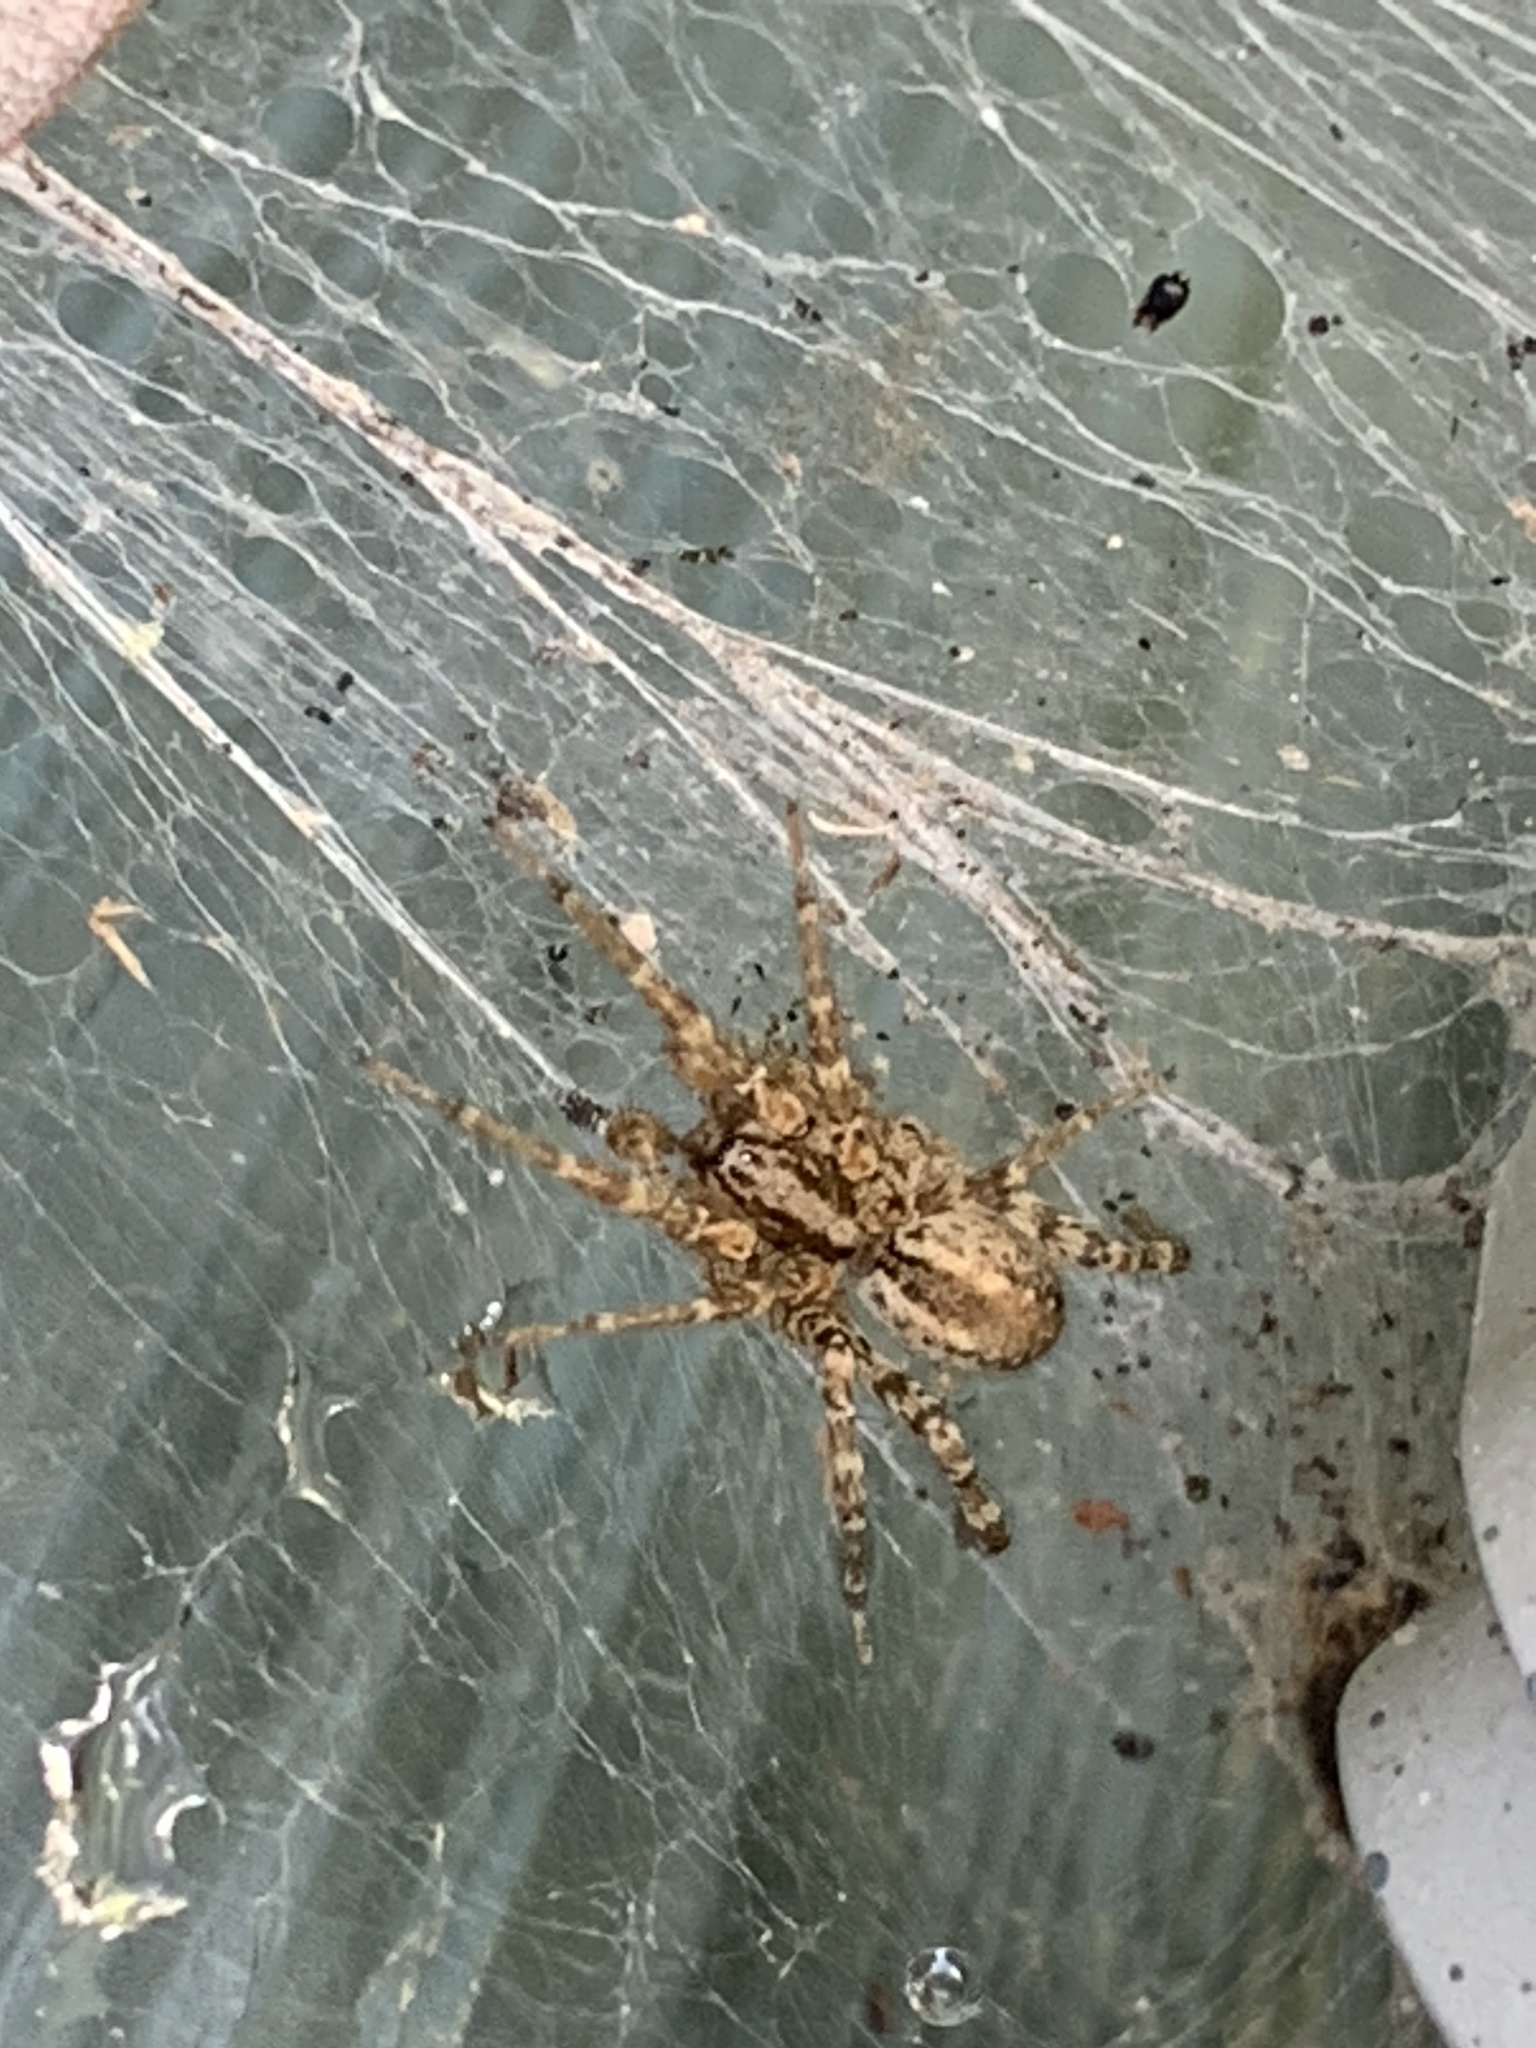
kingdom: Animalia
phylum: Arthropoda
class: Arachnida
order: Araneae
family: Agelenidae
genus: Barronopsis
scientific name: Barronopsis
